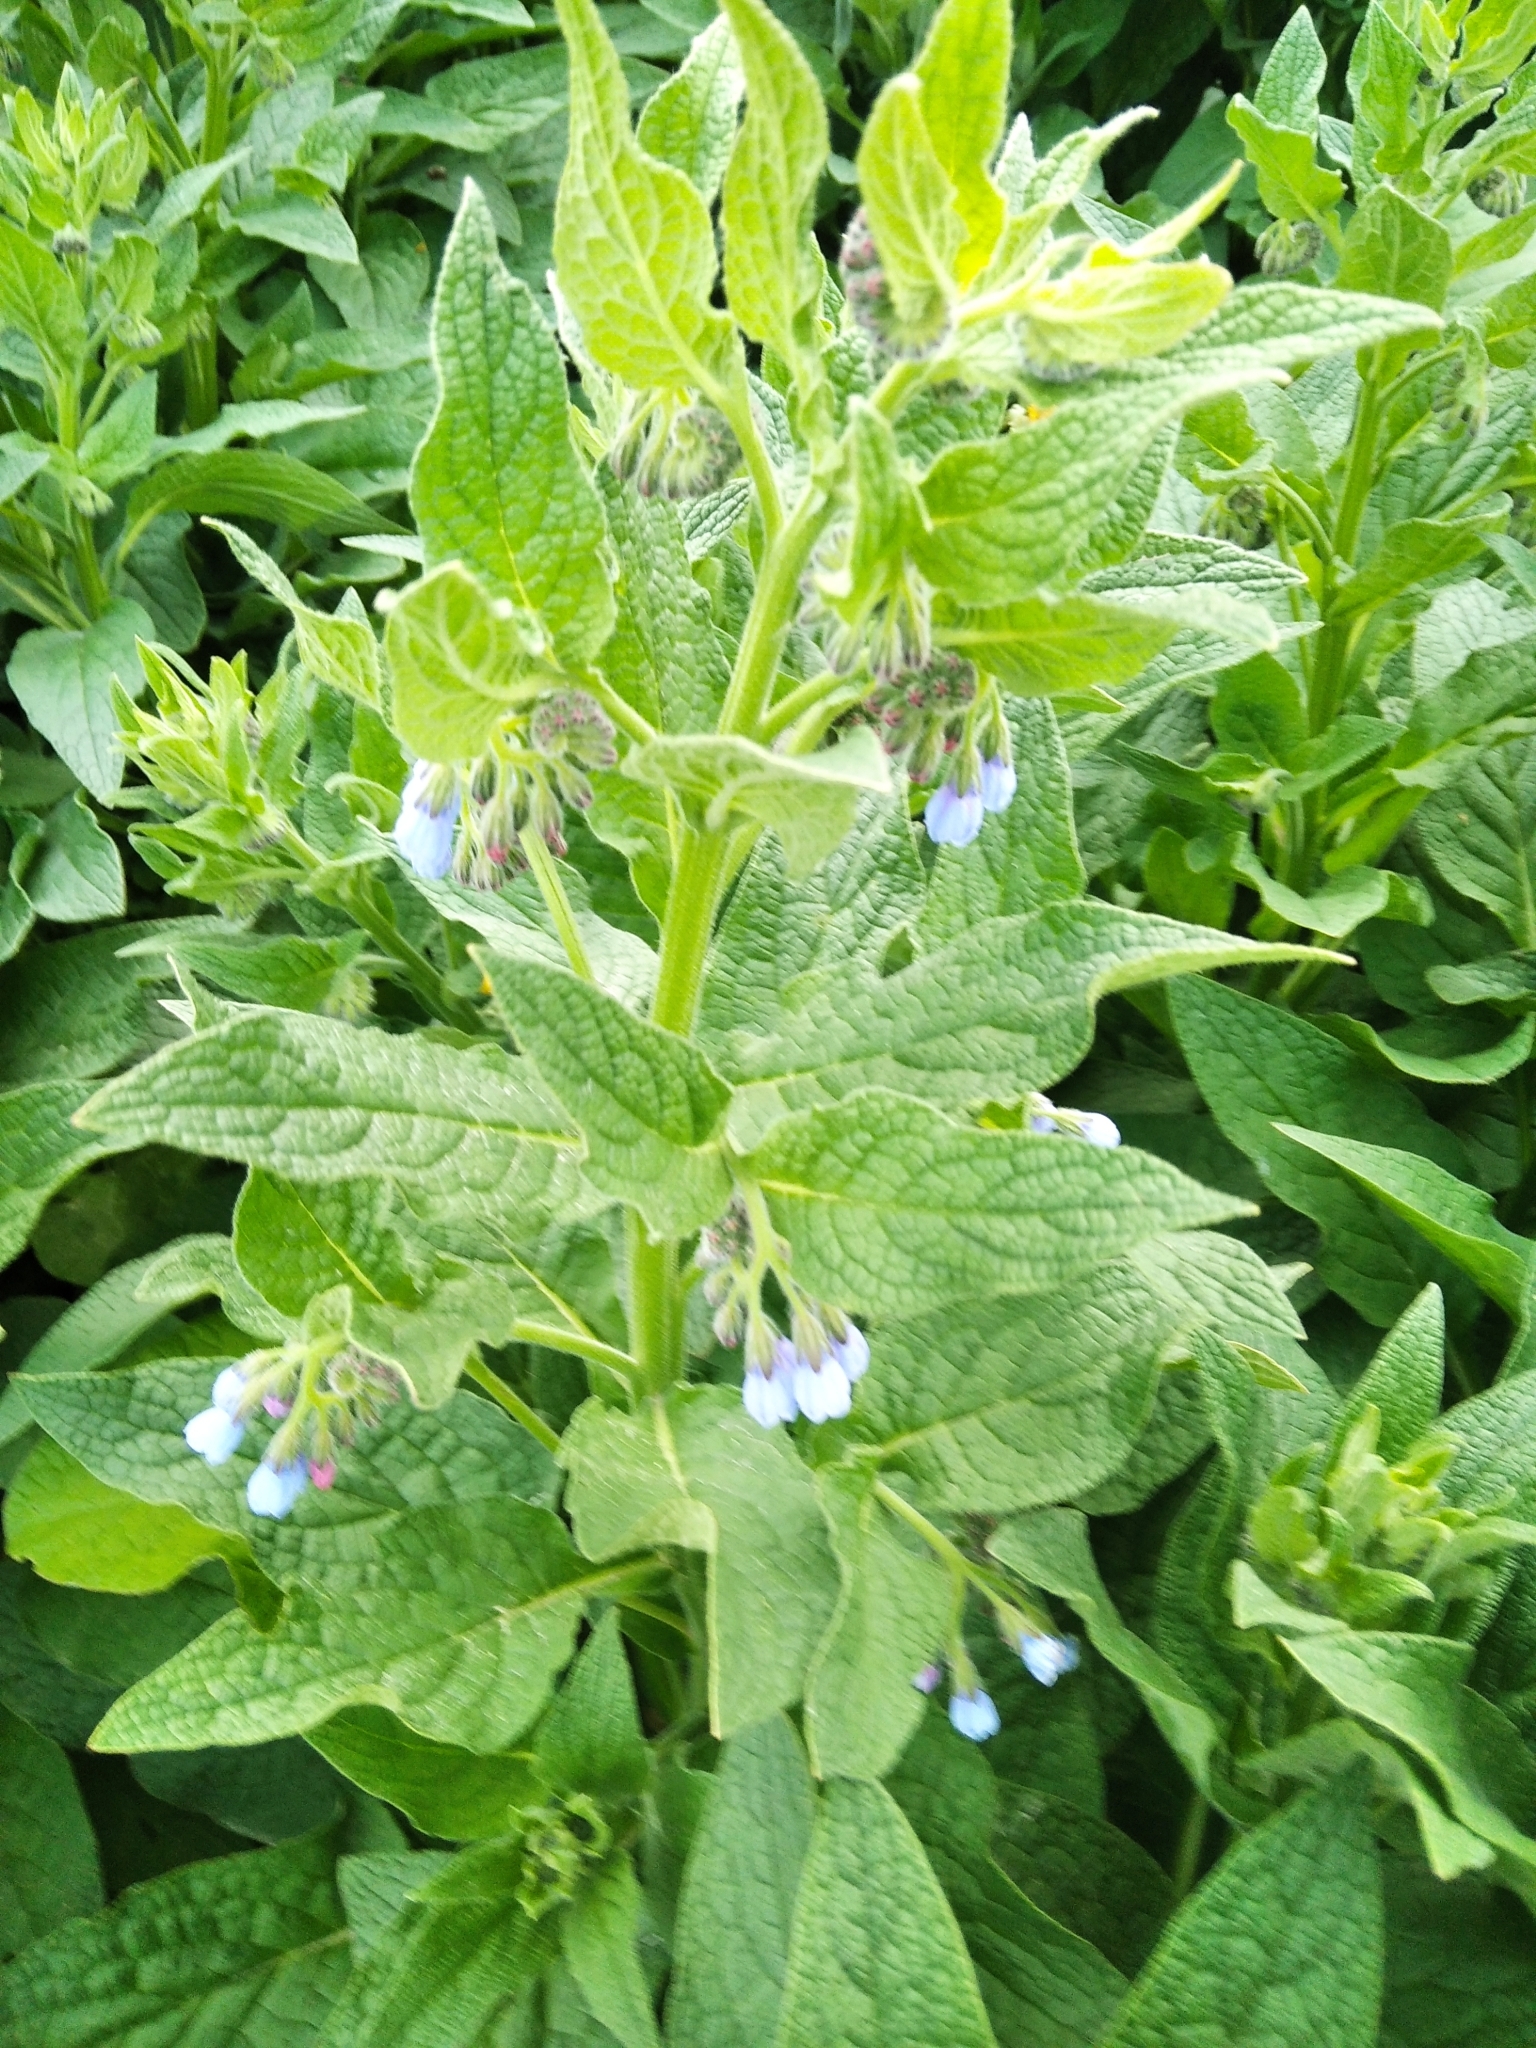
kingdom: Plantae
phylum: Tracheophyta
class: Magnoliopsida
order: Boraginales
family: Boraginaceae
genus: Symphytum
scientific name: Symphytum caucasicum
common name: Caucasian comfrey
